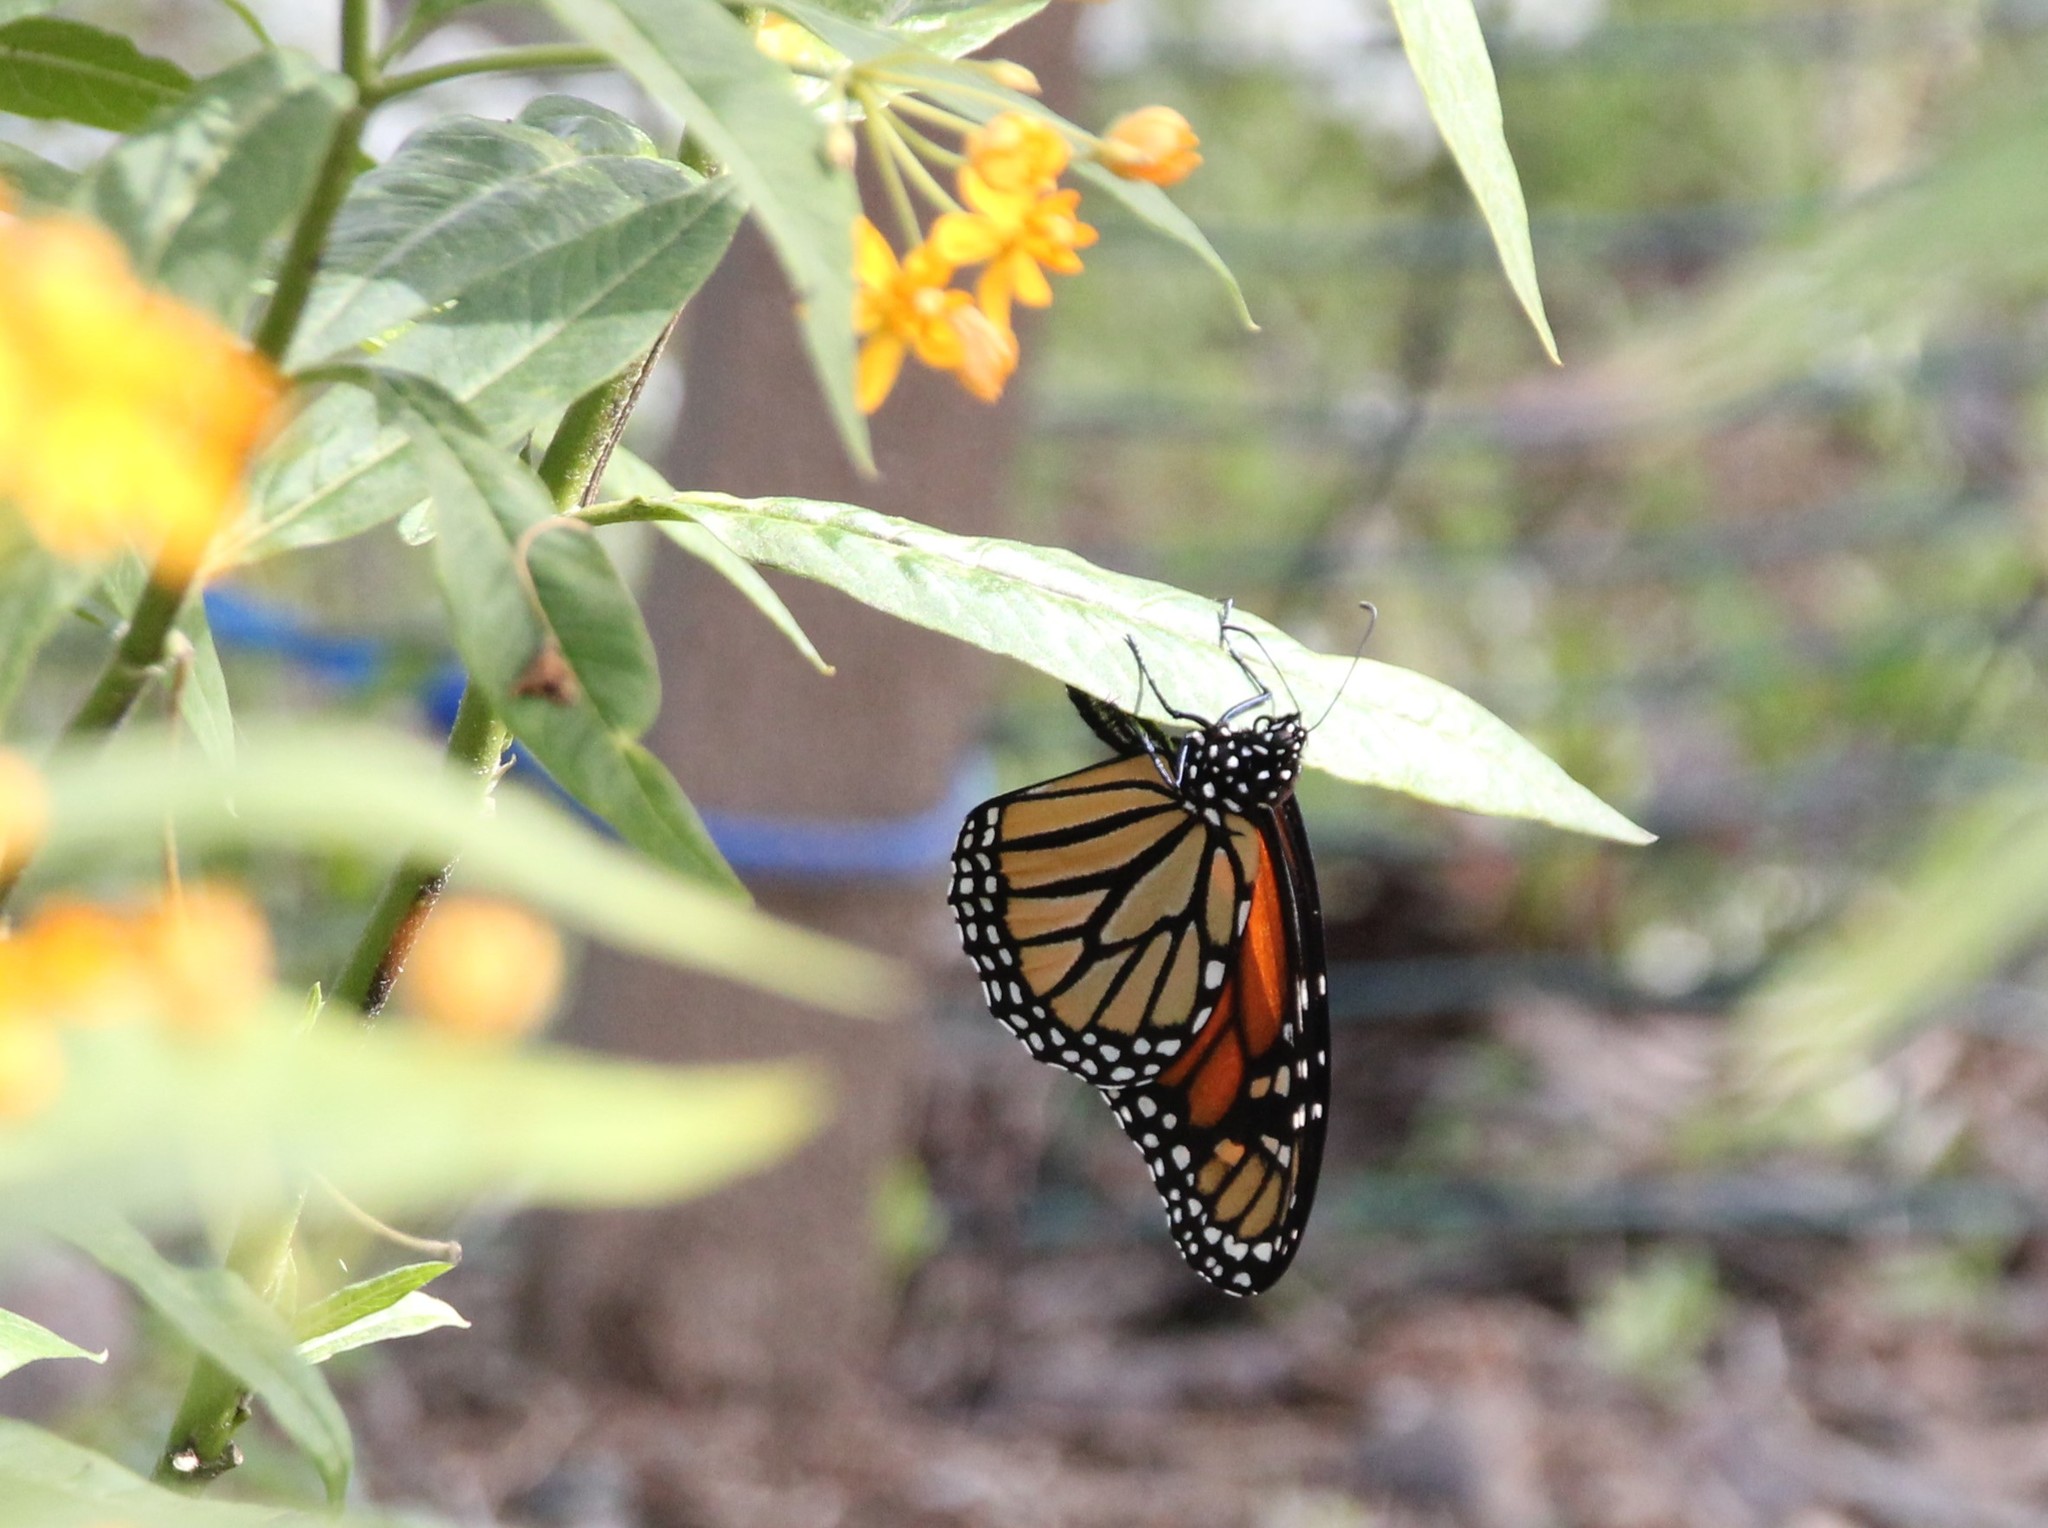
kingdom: Animalia
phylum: Arthropoda
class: Insecta
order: Lepidoptera
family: Nymphalidae
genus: Danaus
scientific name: Danaus plexippus
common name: Monarch
